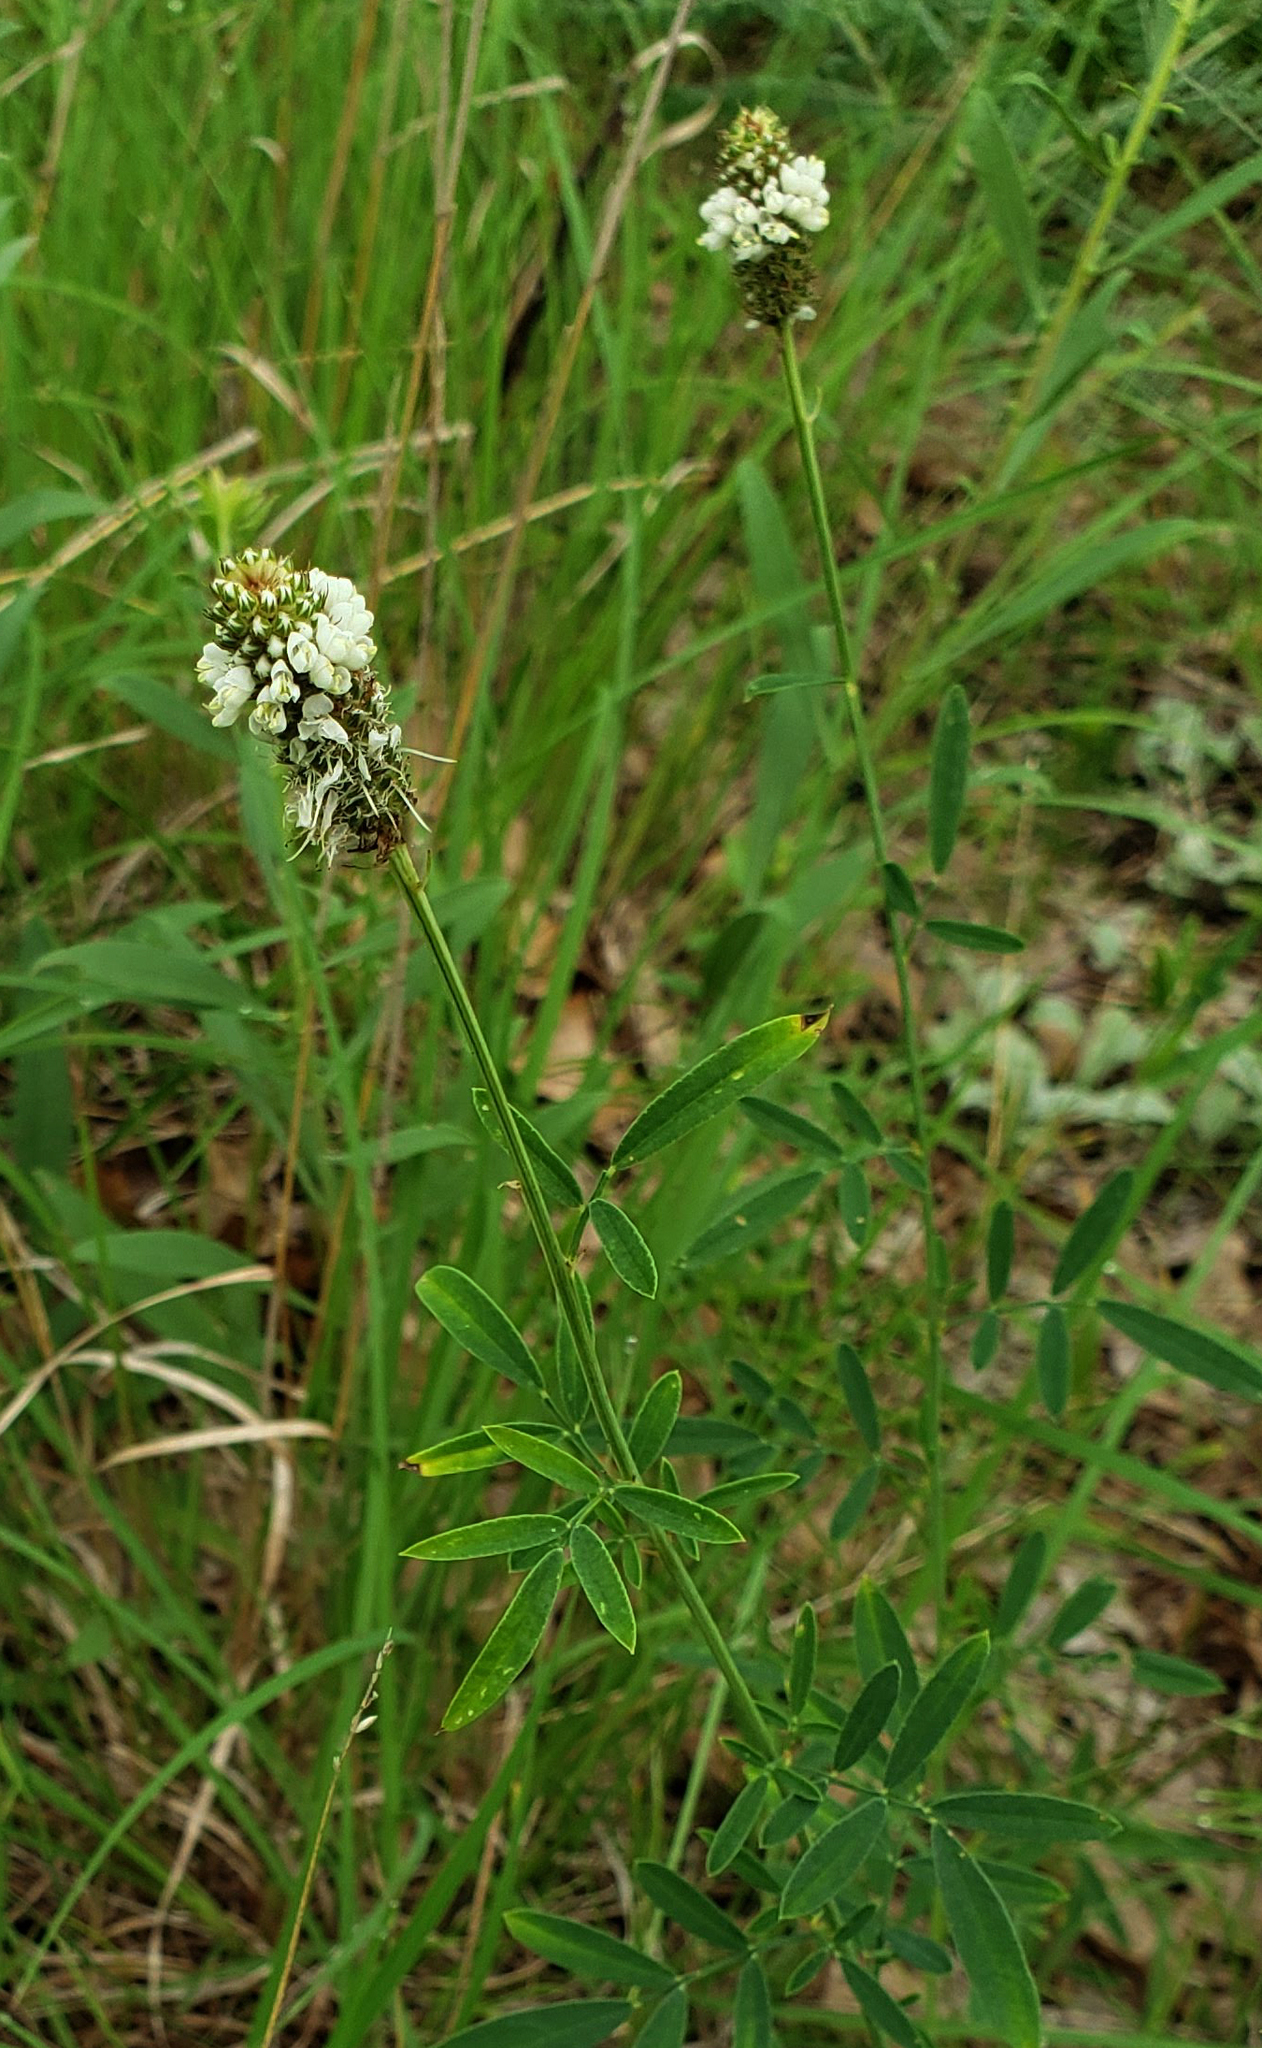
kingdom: Plantae
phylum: Tracheophyta
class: Magnoliopsida
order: Fabales
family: Fabaceae
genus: Dalea
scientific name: Dalea candida
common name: White prairie-clover
